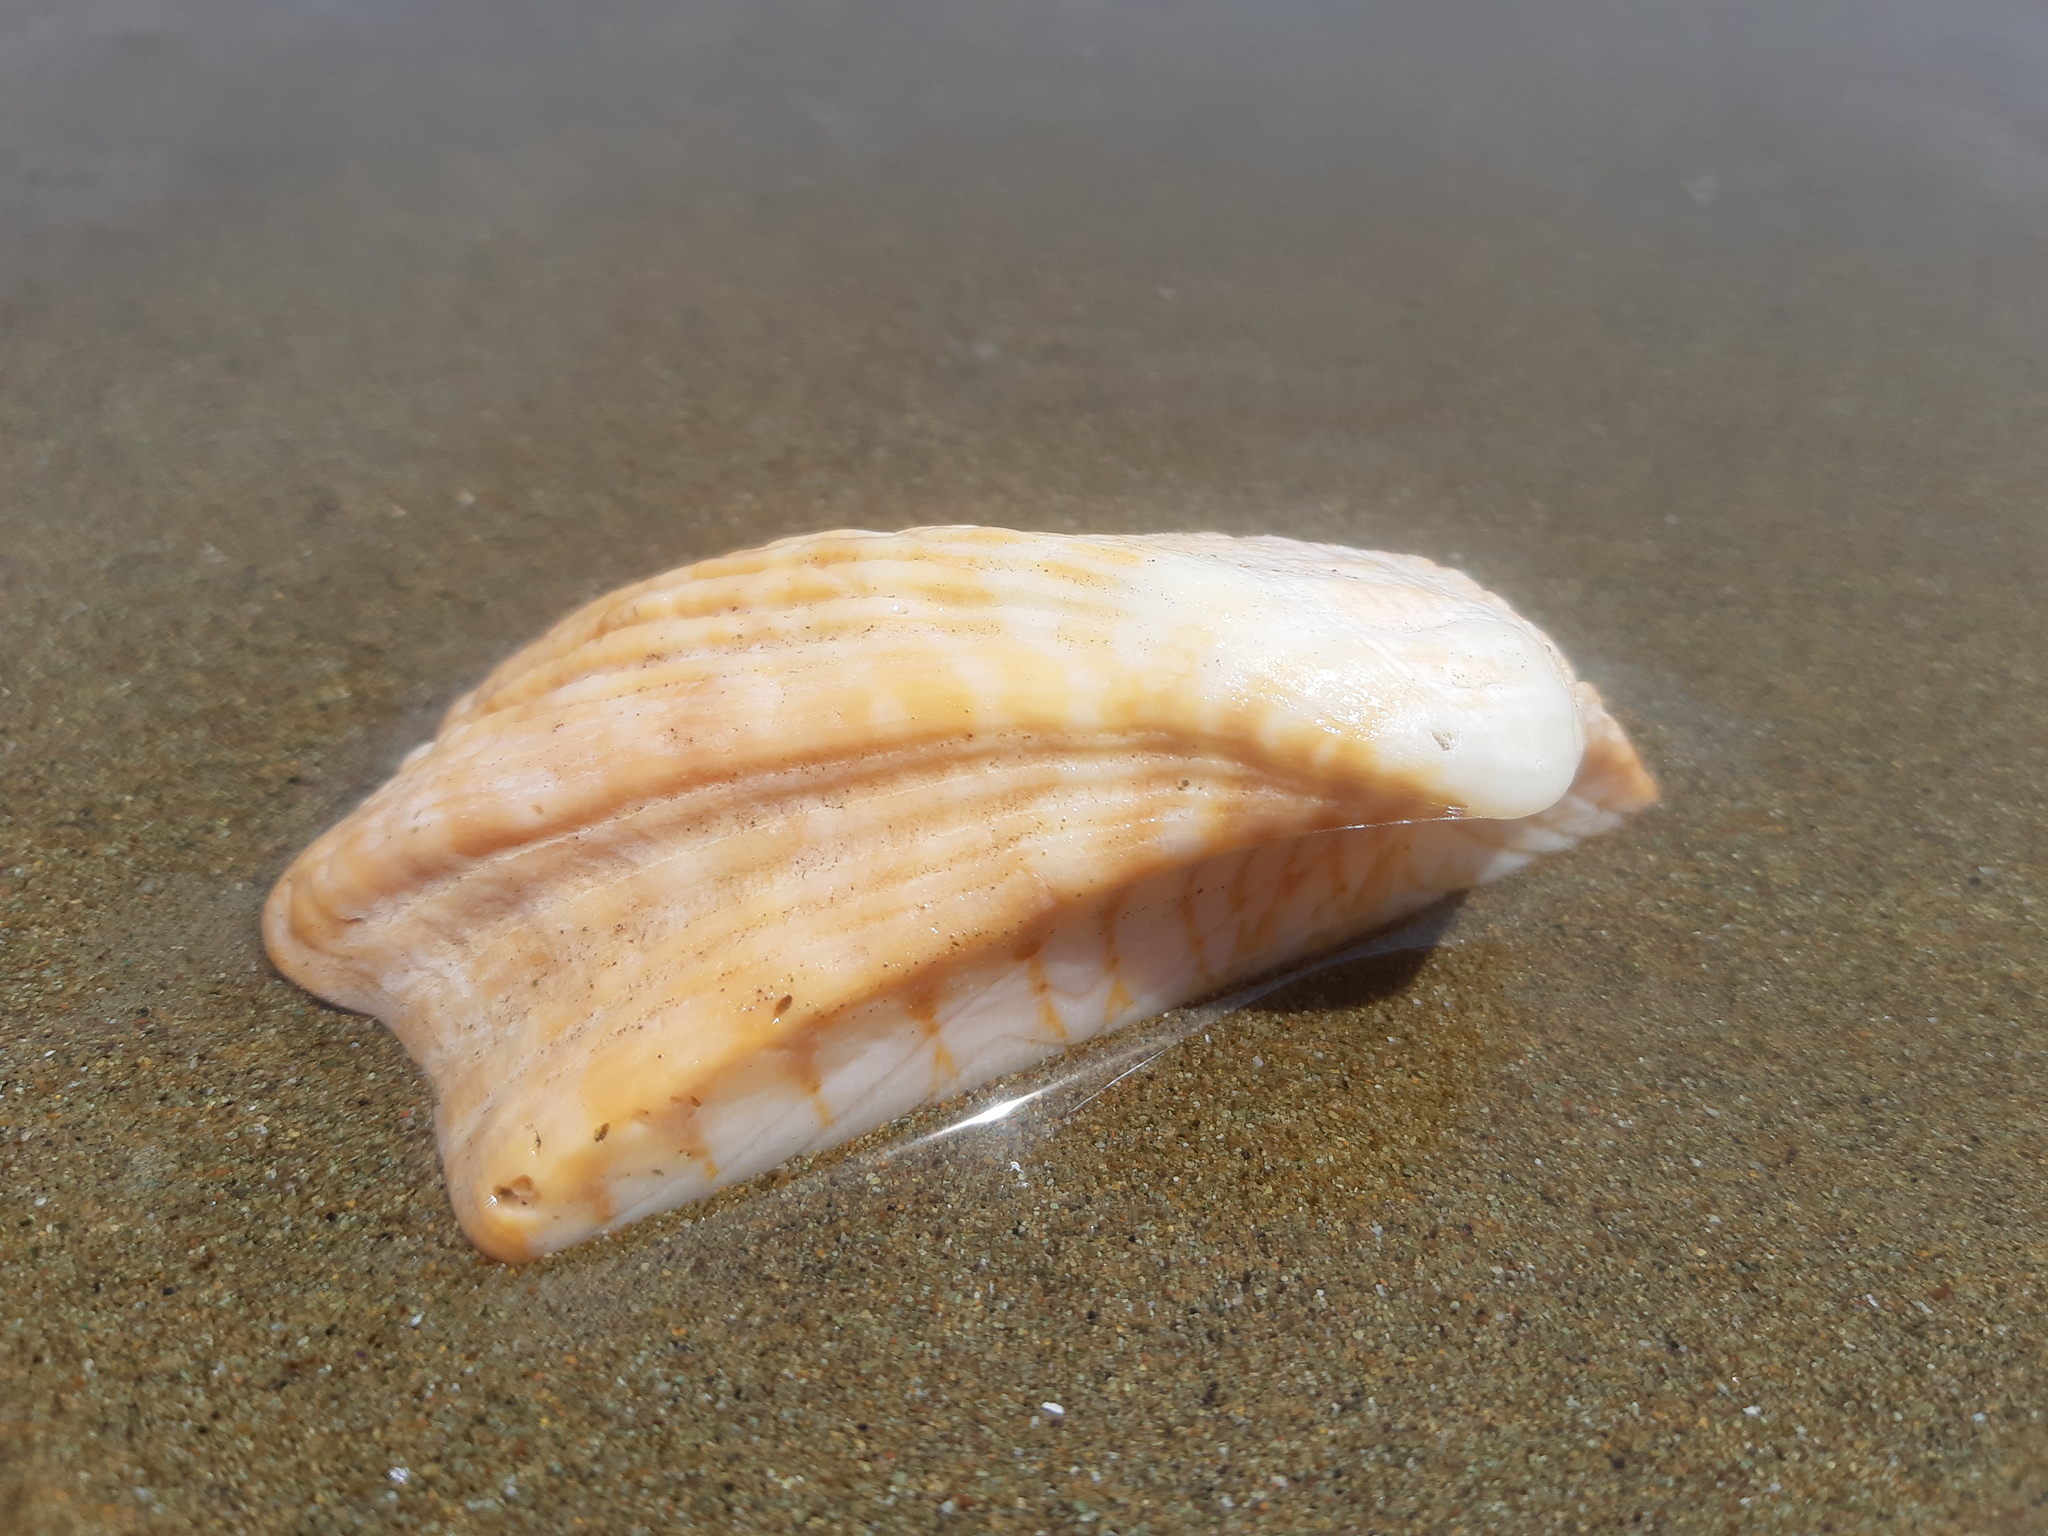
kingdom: Animalia
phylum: Mollusca
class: Bivalvia
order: Arcida
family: Arcidae
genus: Arca
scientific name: Arca pacifica
